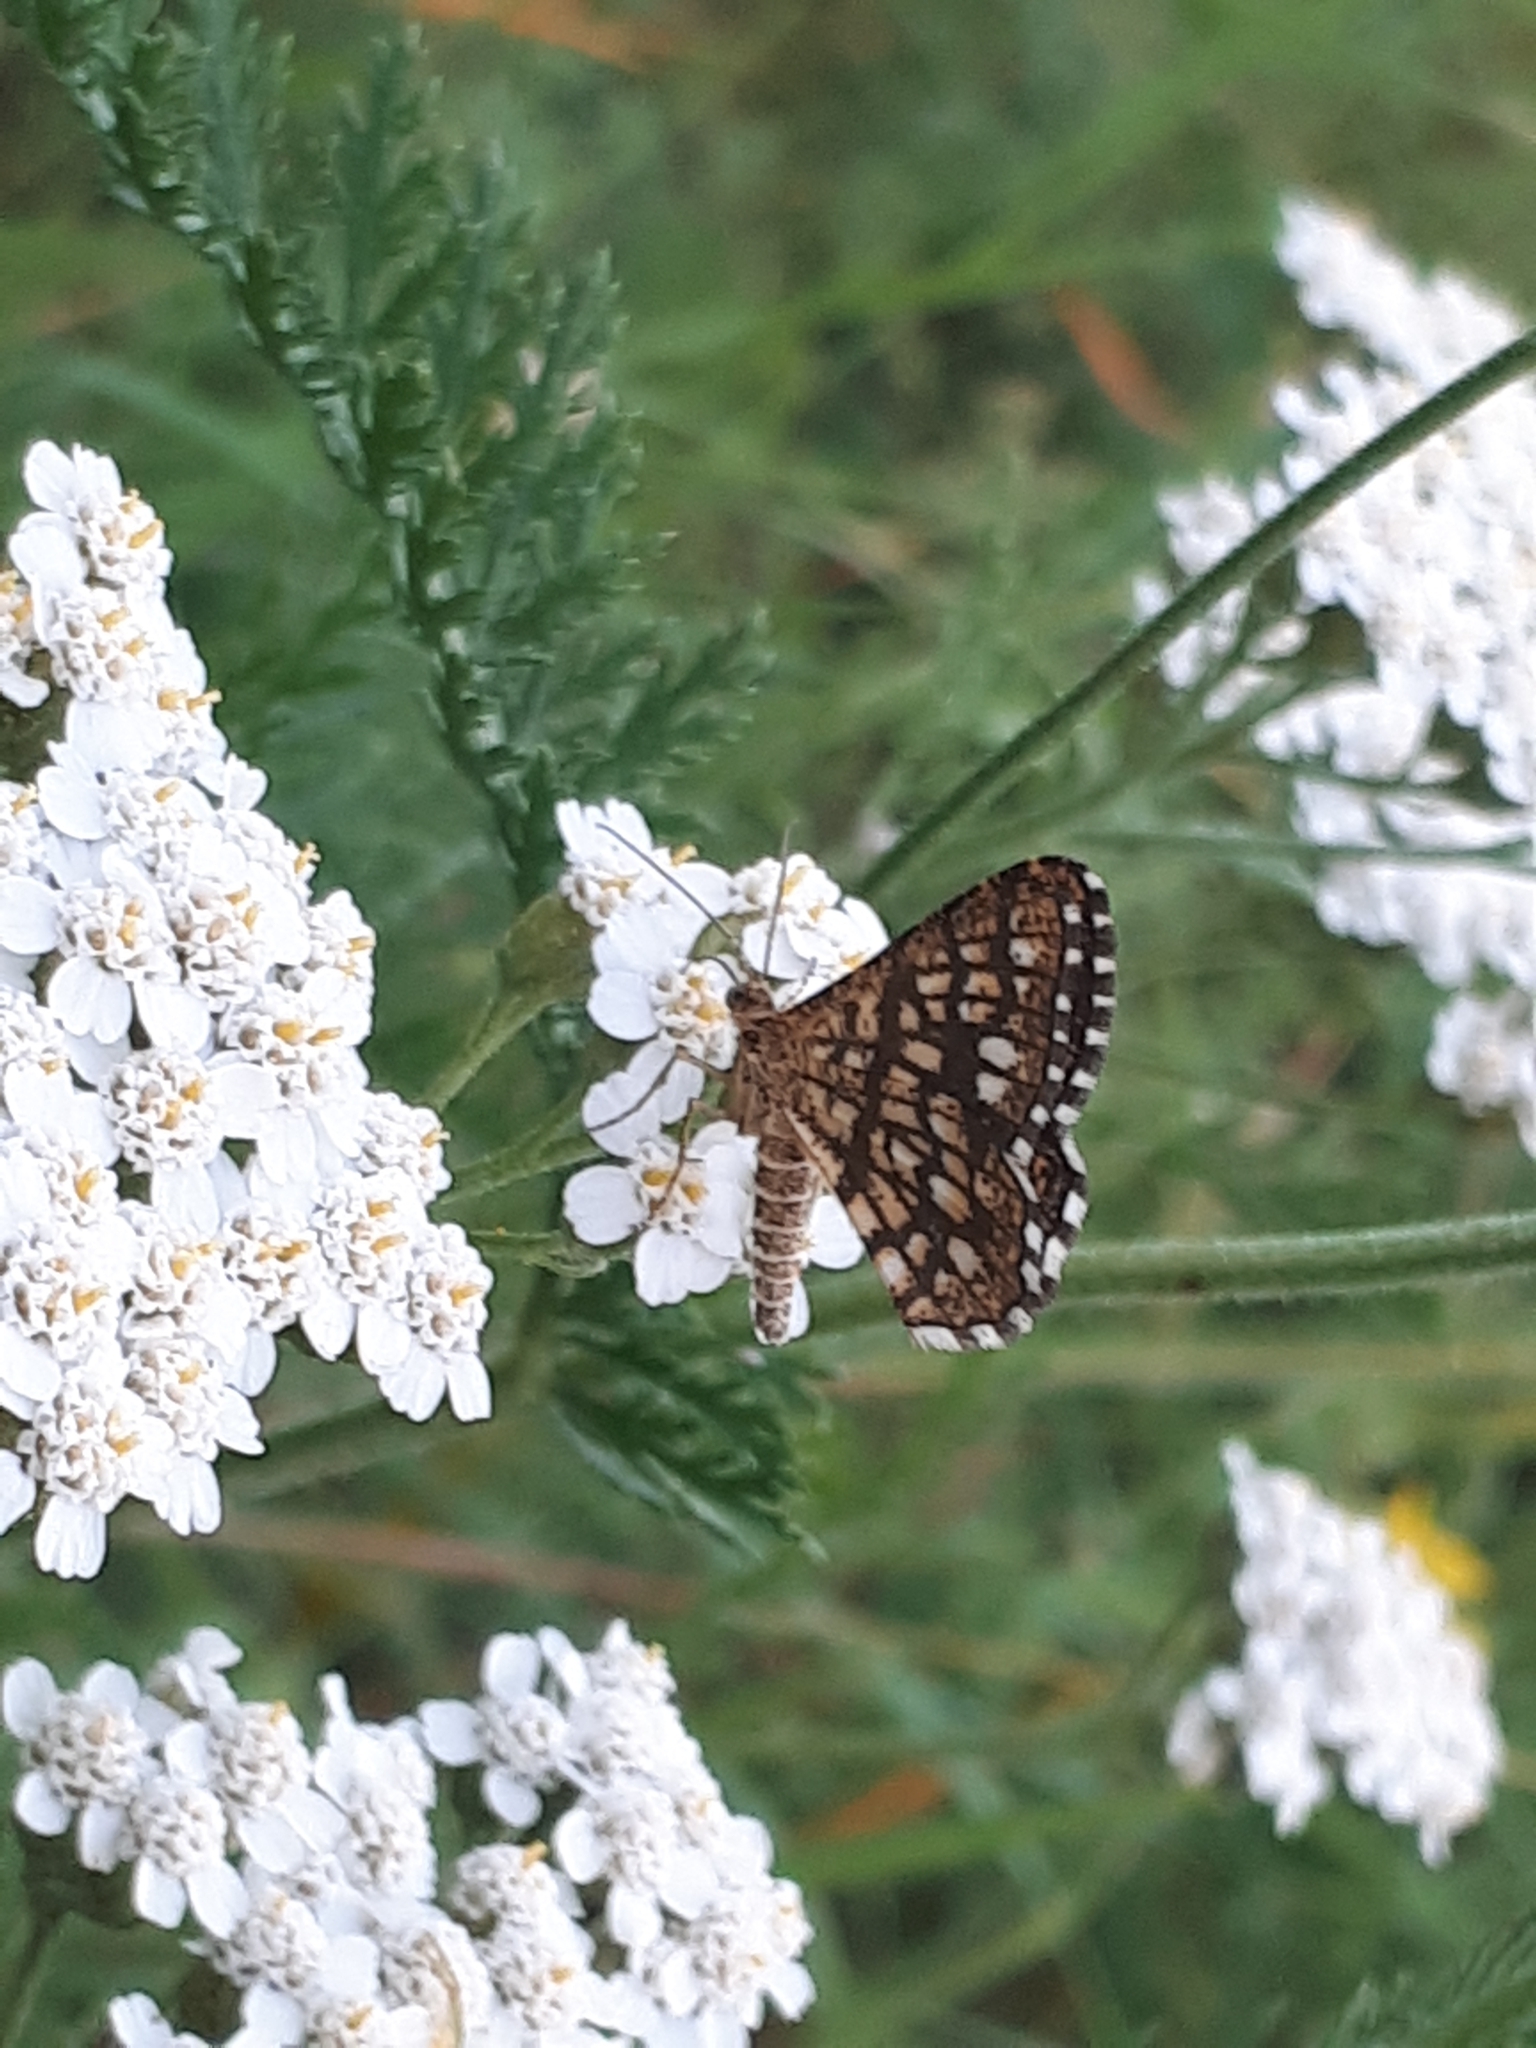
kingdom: Animalia
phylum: Arthropoda
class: Insecta
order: Lepidoptera
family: Geometridae
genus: Chiasmia
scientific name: Chiasmia clathrata
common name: Latticed heath
